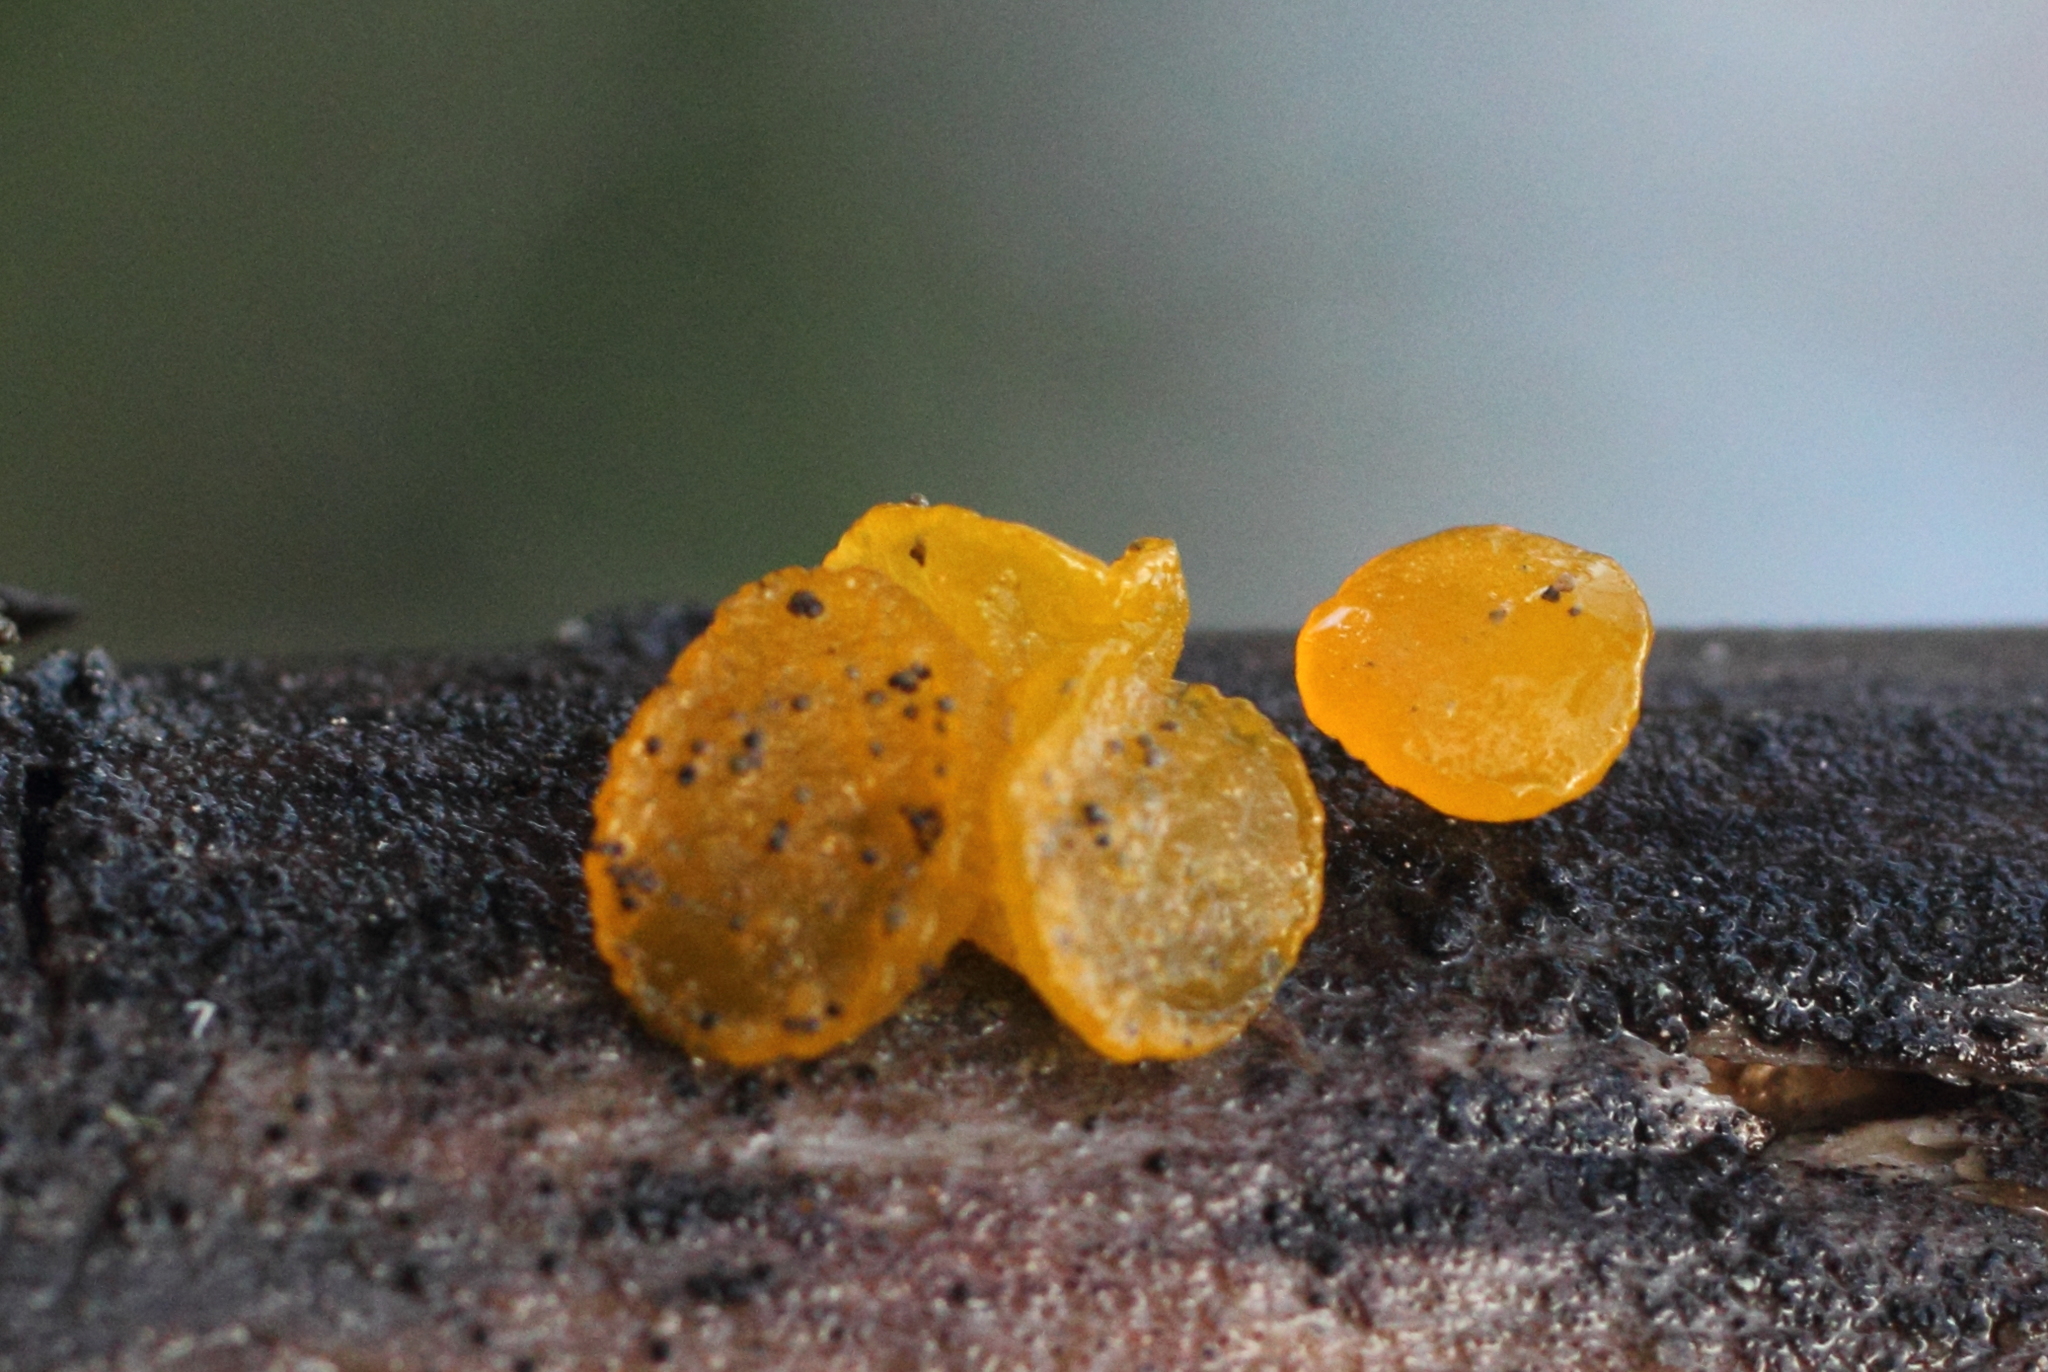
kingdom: Fungi
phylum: Basidiomycota
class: Dacrymycetes
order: Dacrymycetales
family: Dacrymycetaceae
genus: Guepiniopsis
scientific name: Guepiniopsis alpina
